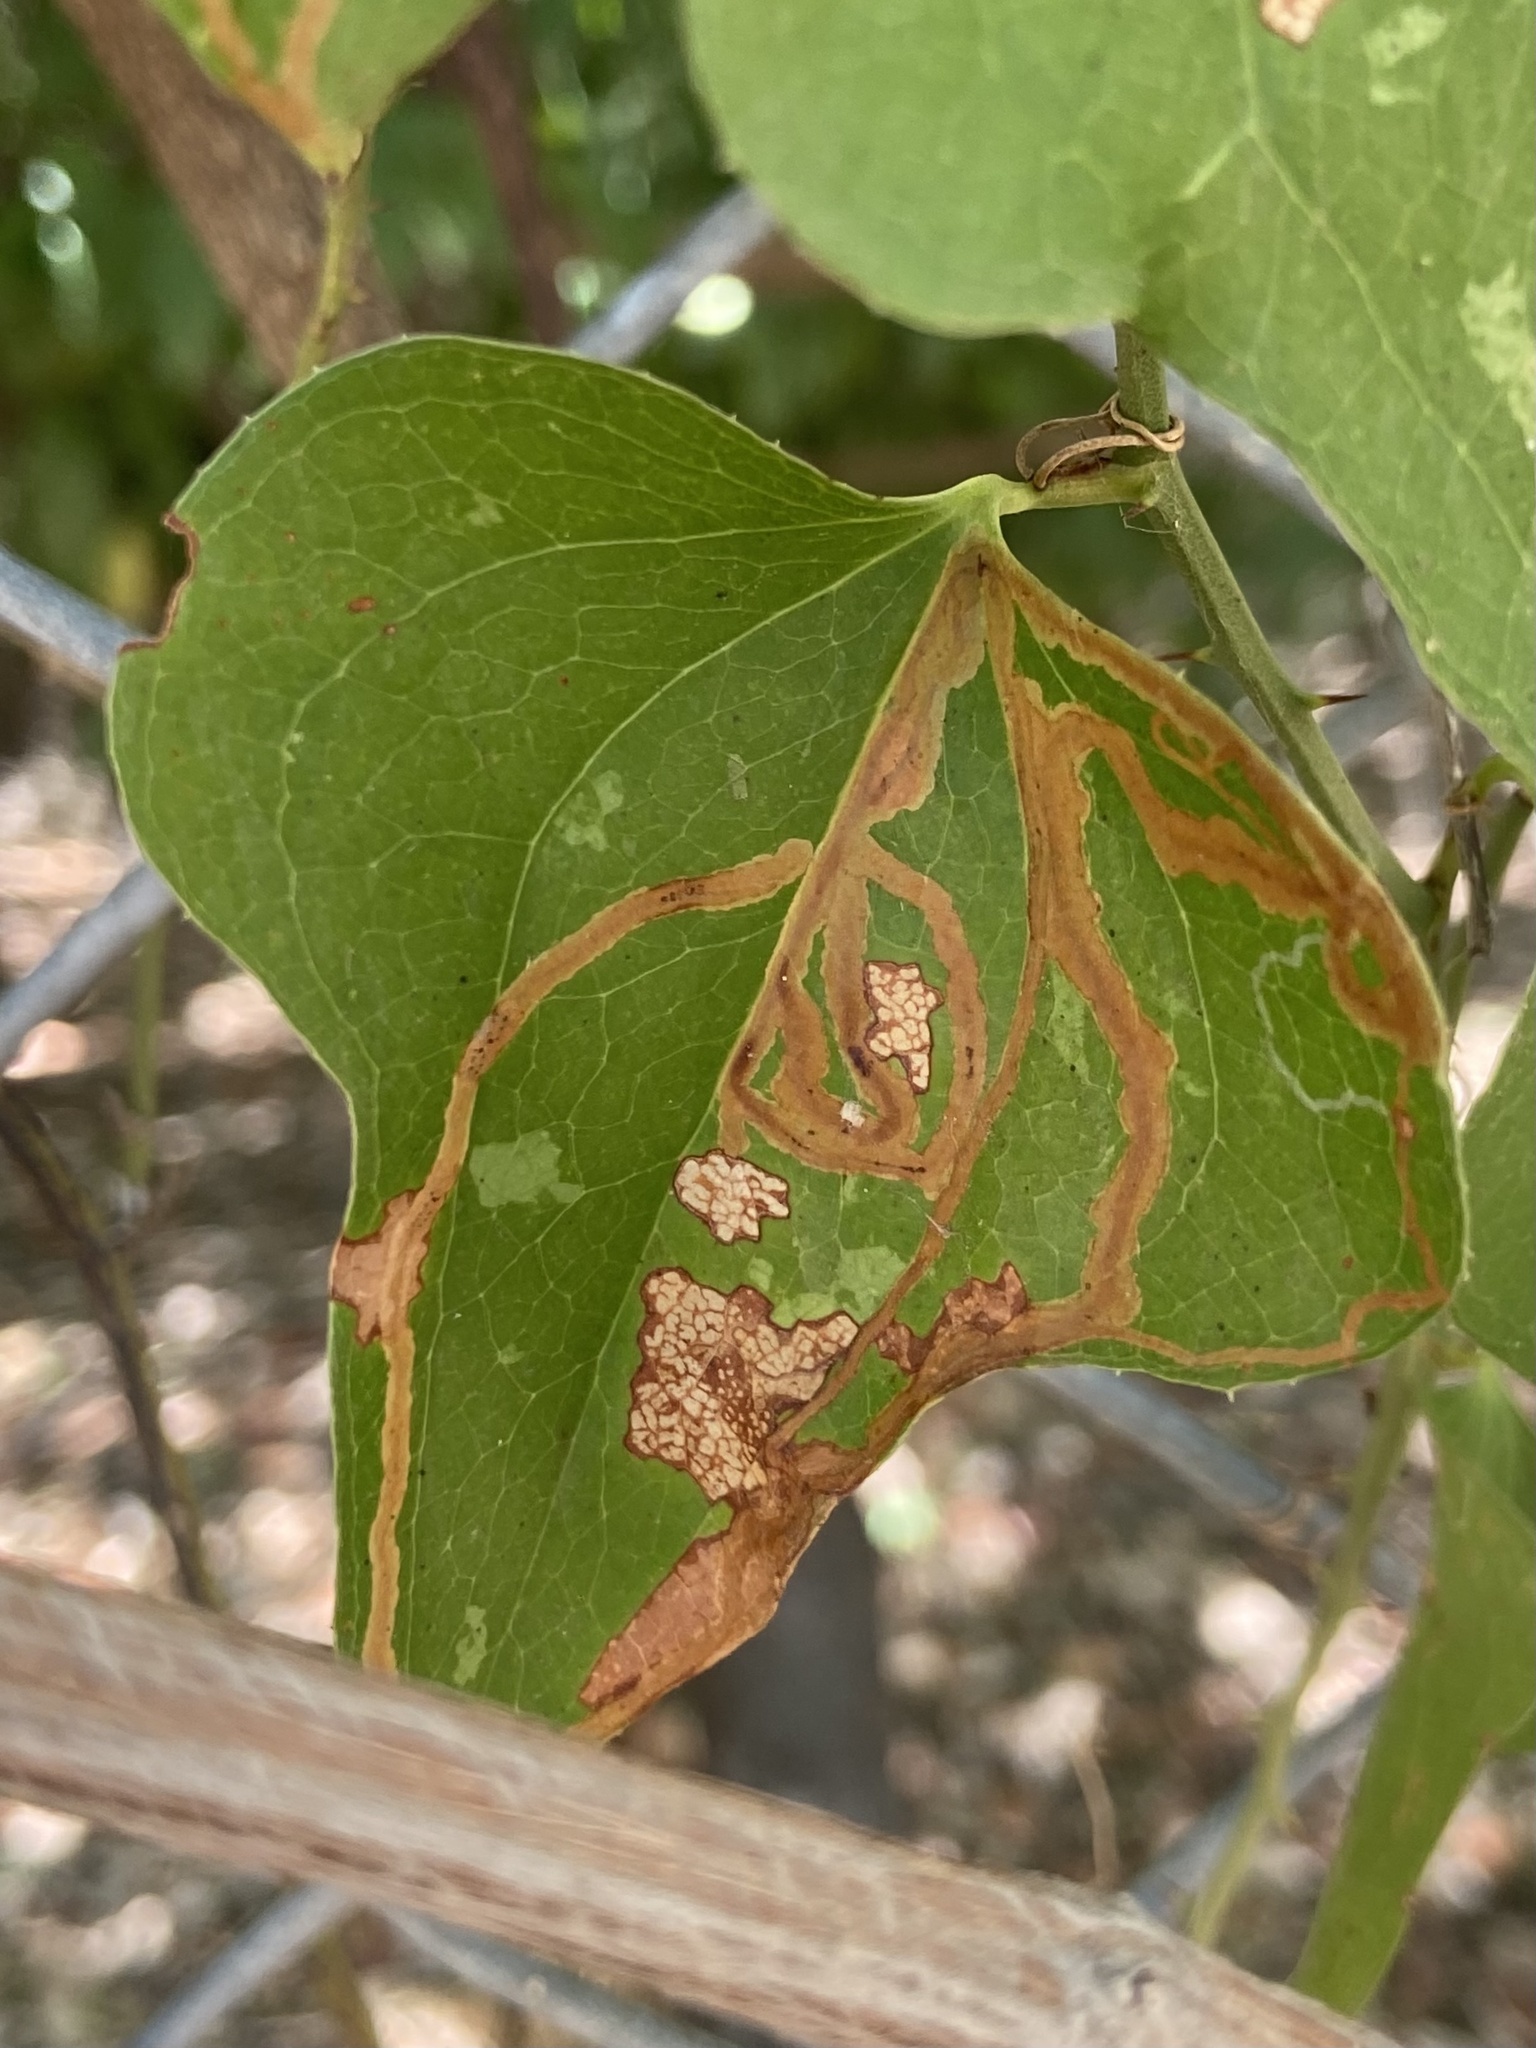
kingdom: Animalia
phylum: Arthropoda
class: Insecta
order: Lepidoptera
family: Gracillariidae
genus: Marmara
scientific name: Marmara smilacisella
